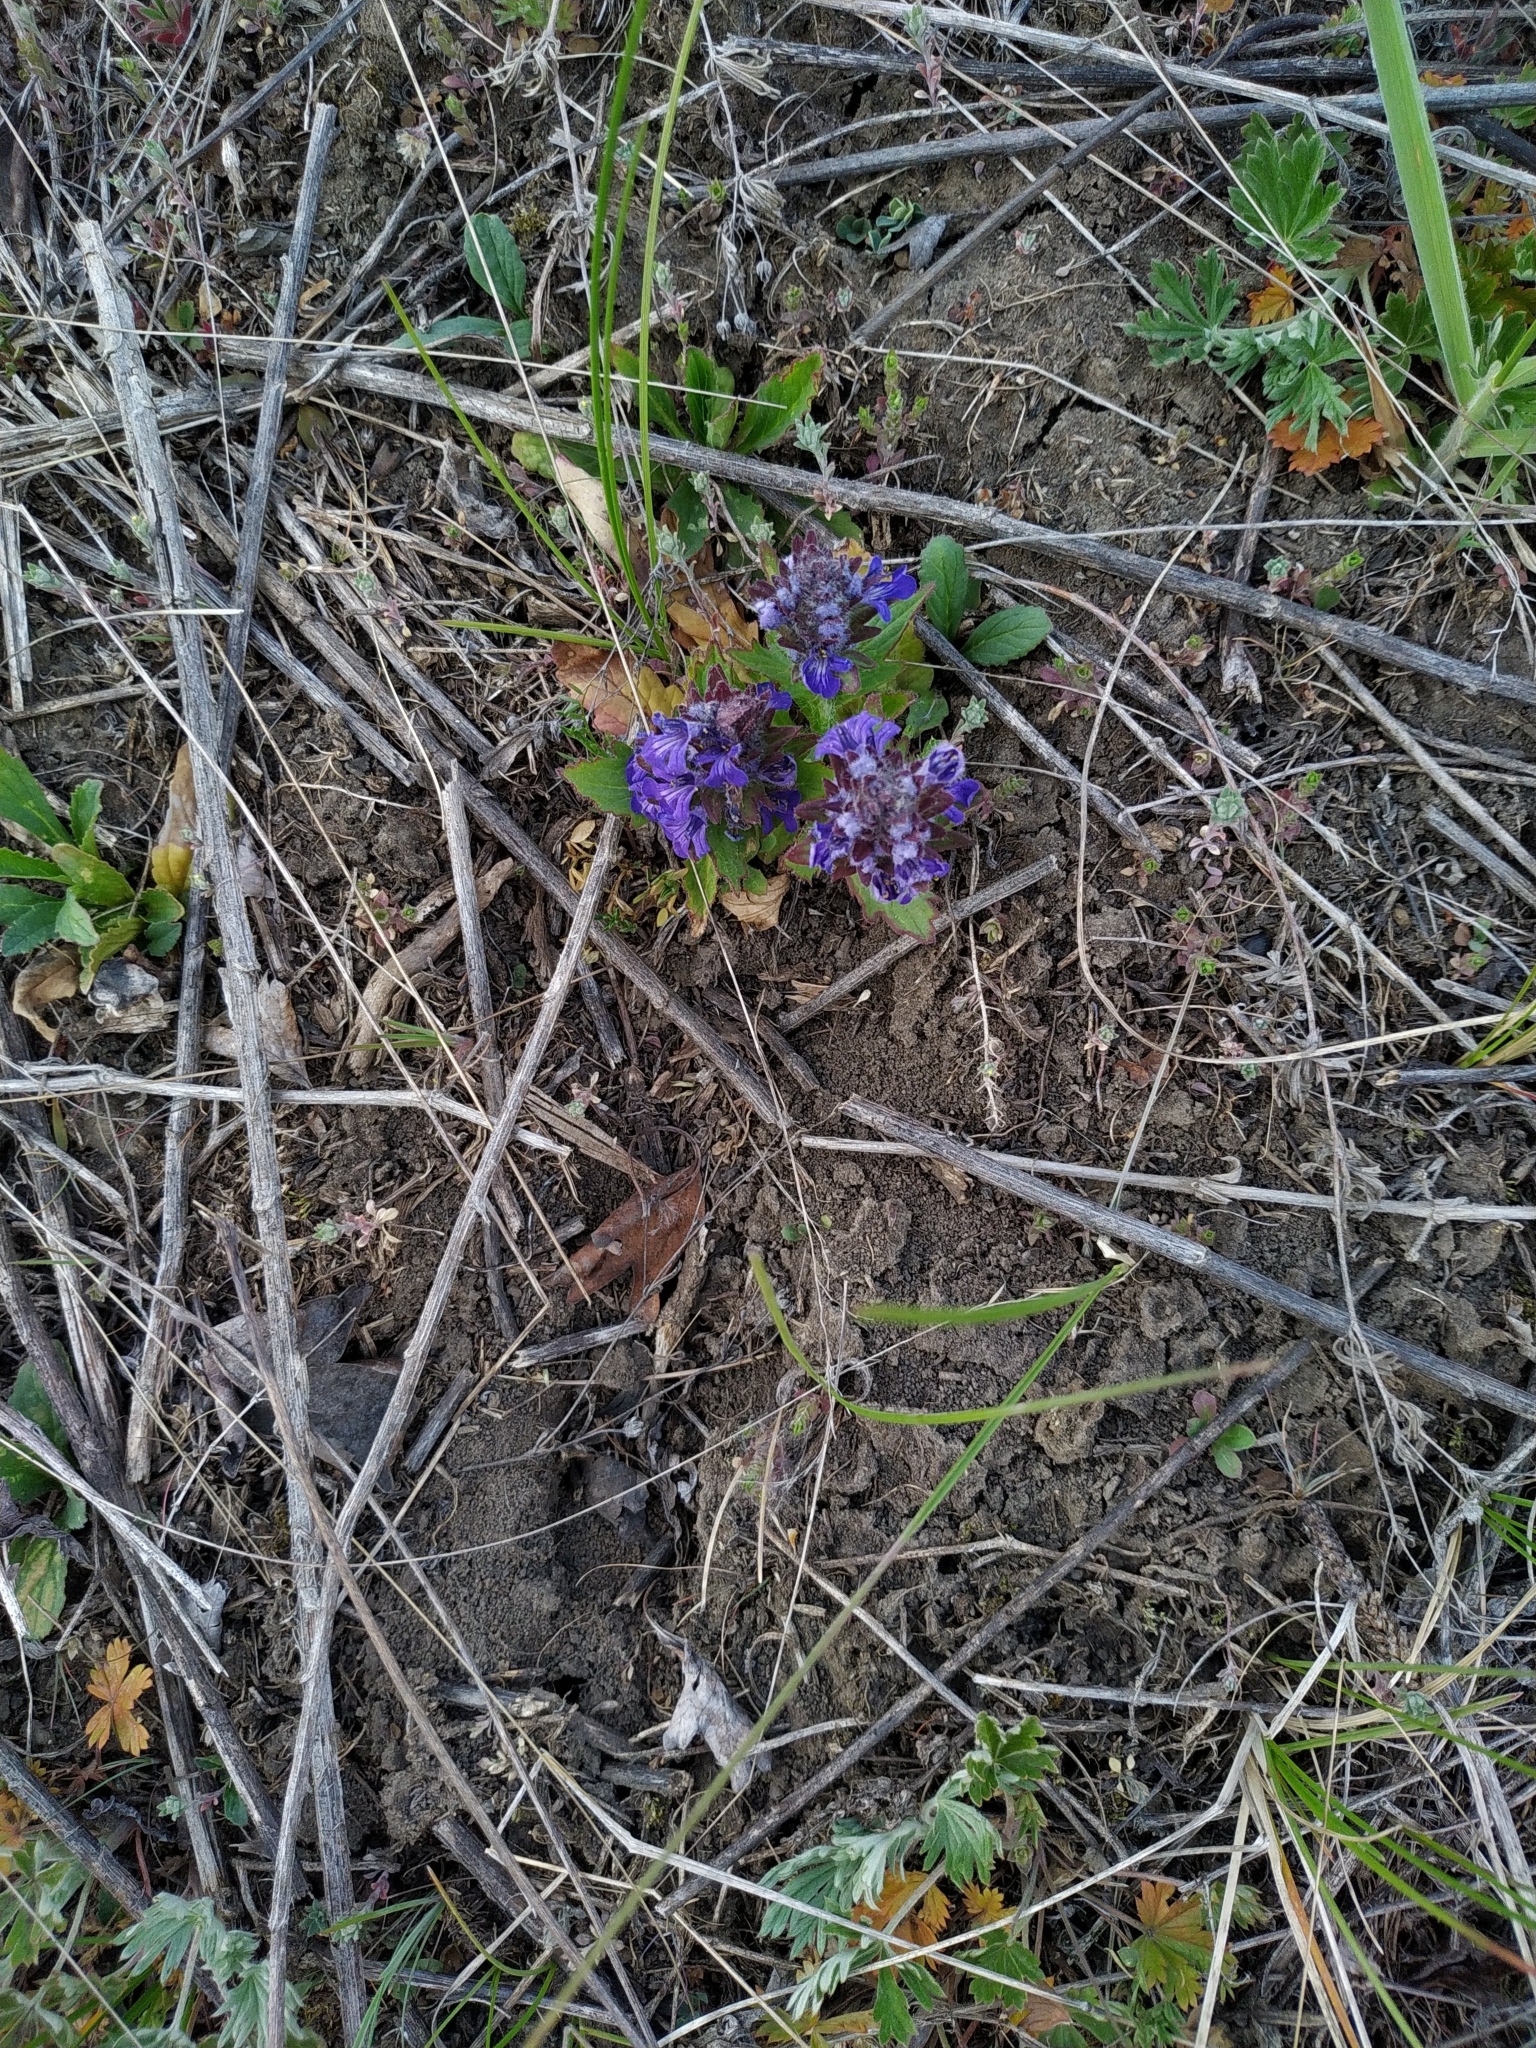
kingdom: Plantae
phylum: Tracheophyta
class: Magnoliopsida
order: Lamiales
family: Lamiaceae
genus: Ajuga
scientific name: Ajuga genevensis
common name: Blue bugle
